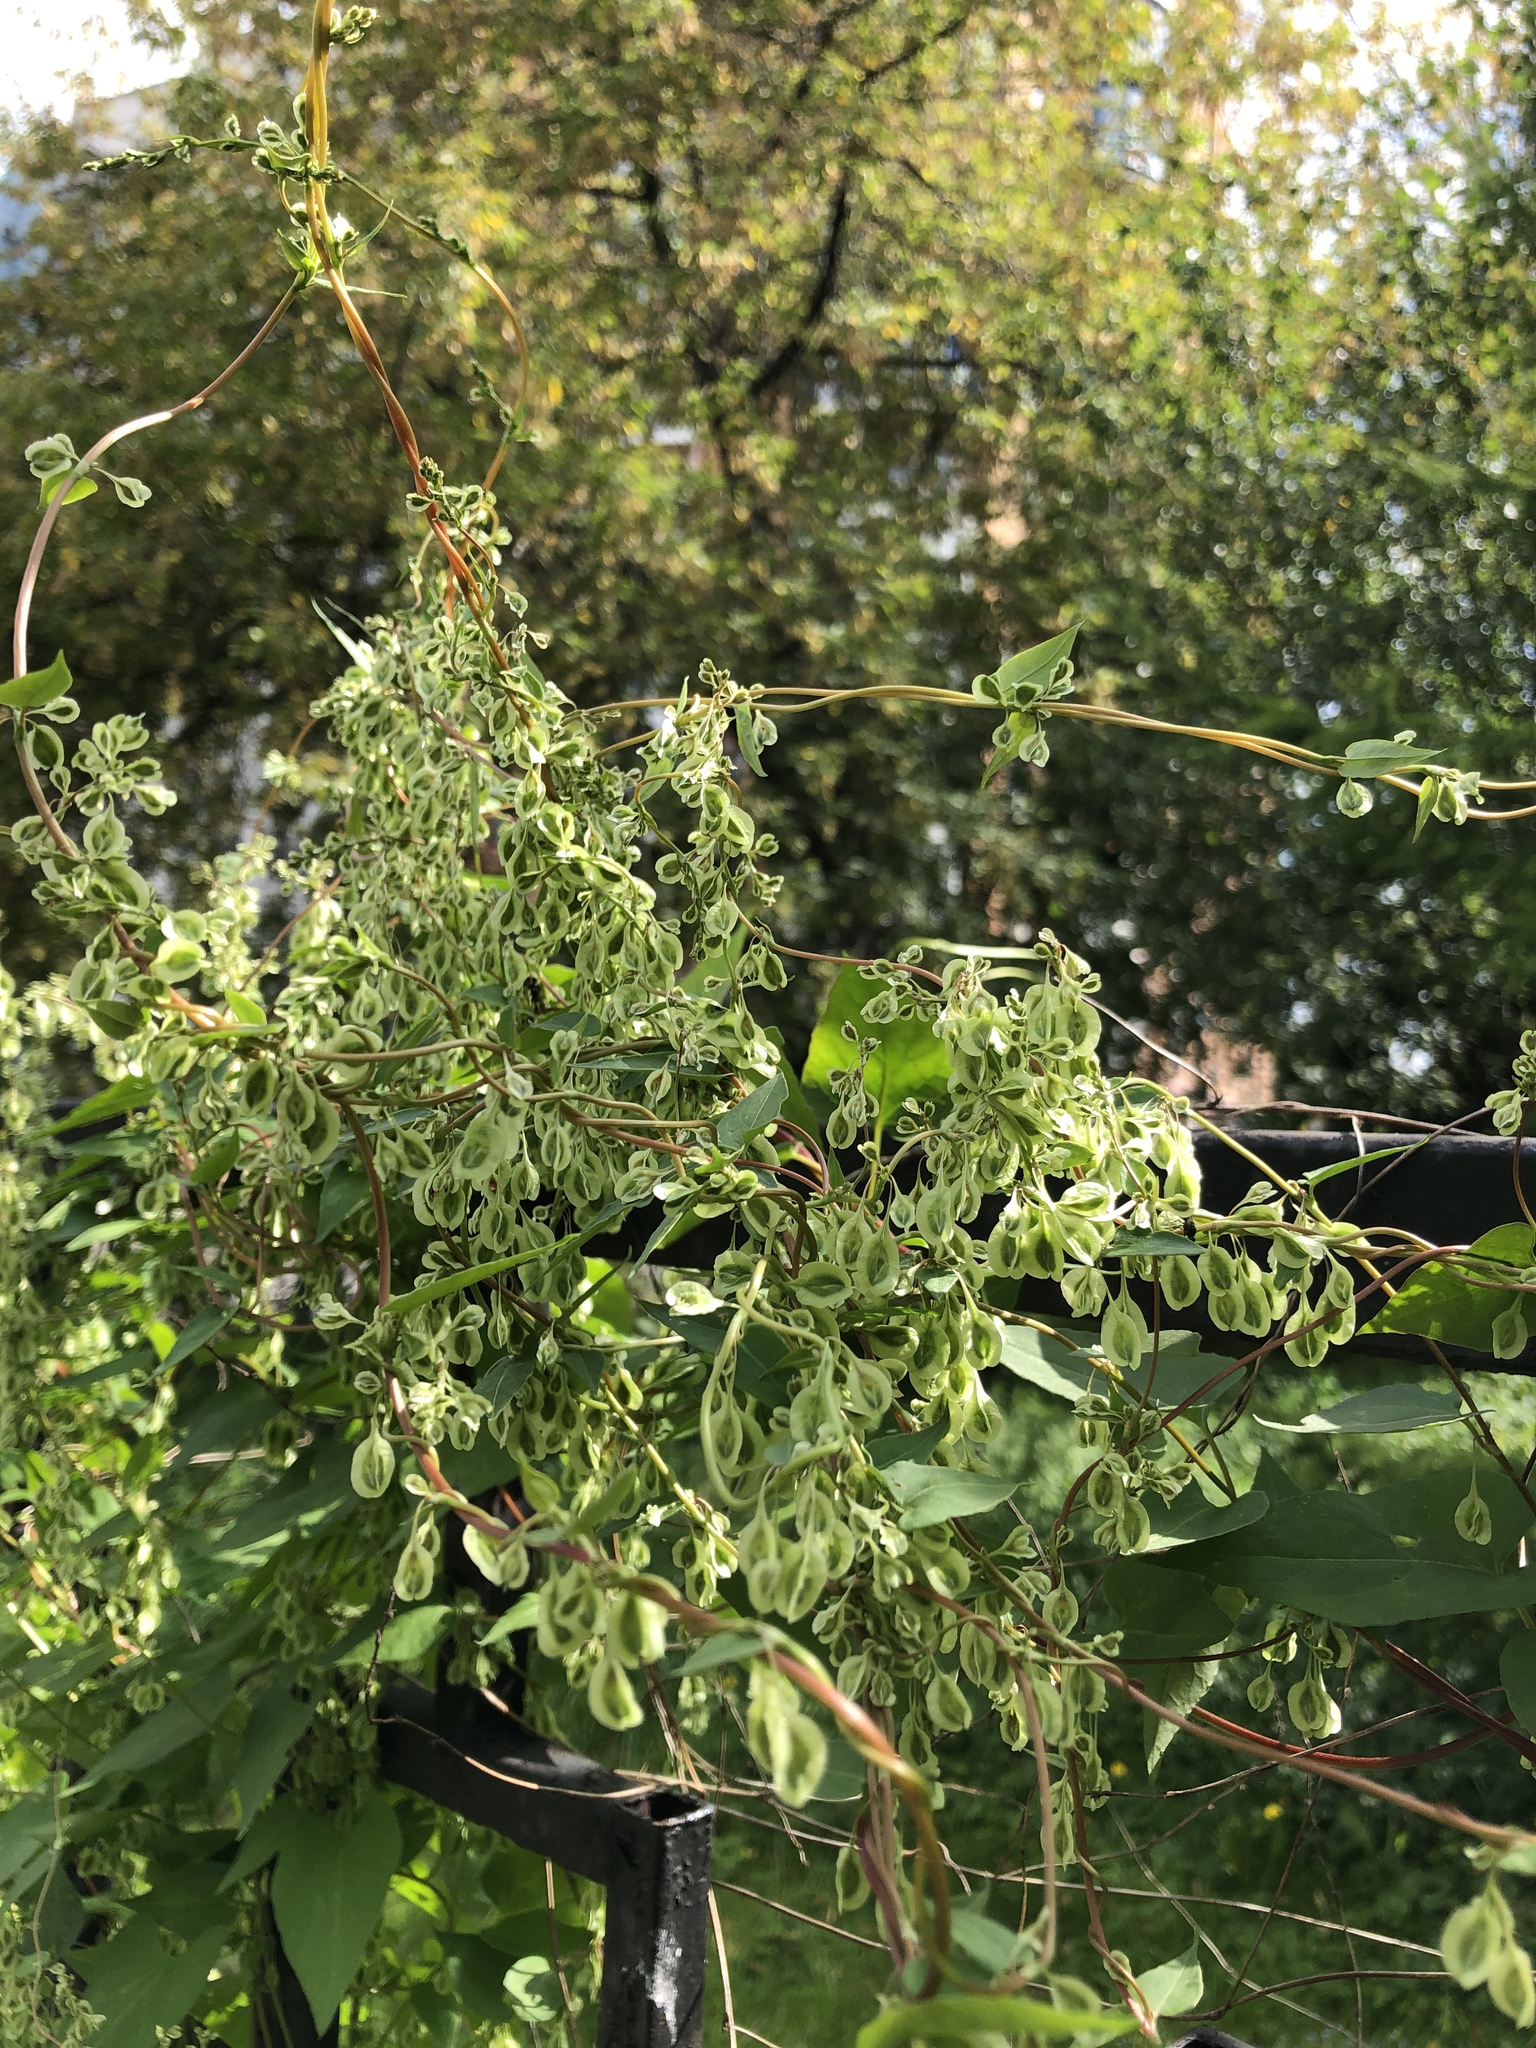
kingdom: Plantae
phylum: Tracheophyta
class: Magnoliopsida
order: Caryophyllales
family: Polygonaceae
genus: Fallopia
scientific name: Fallopia dumetorum
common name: Copse-bindweed
